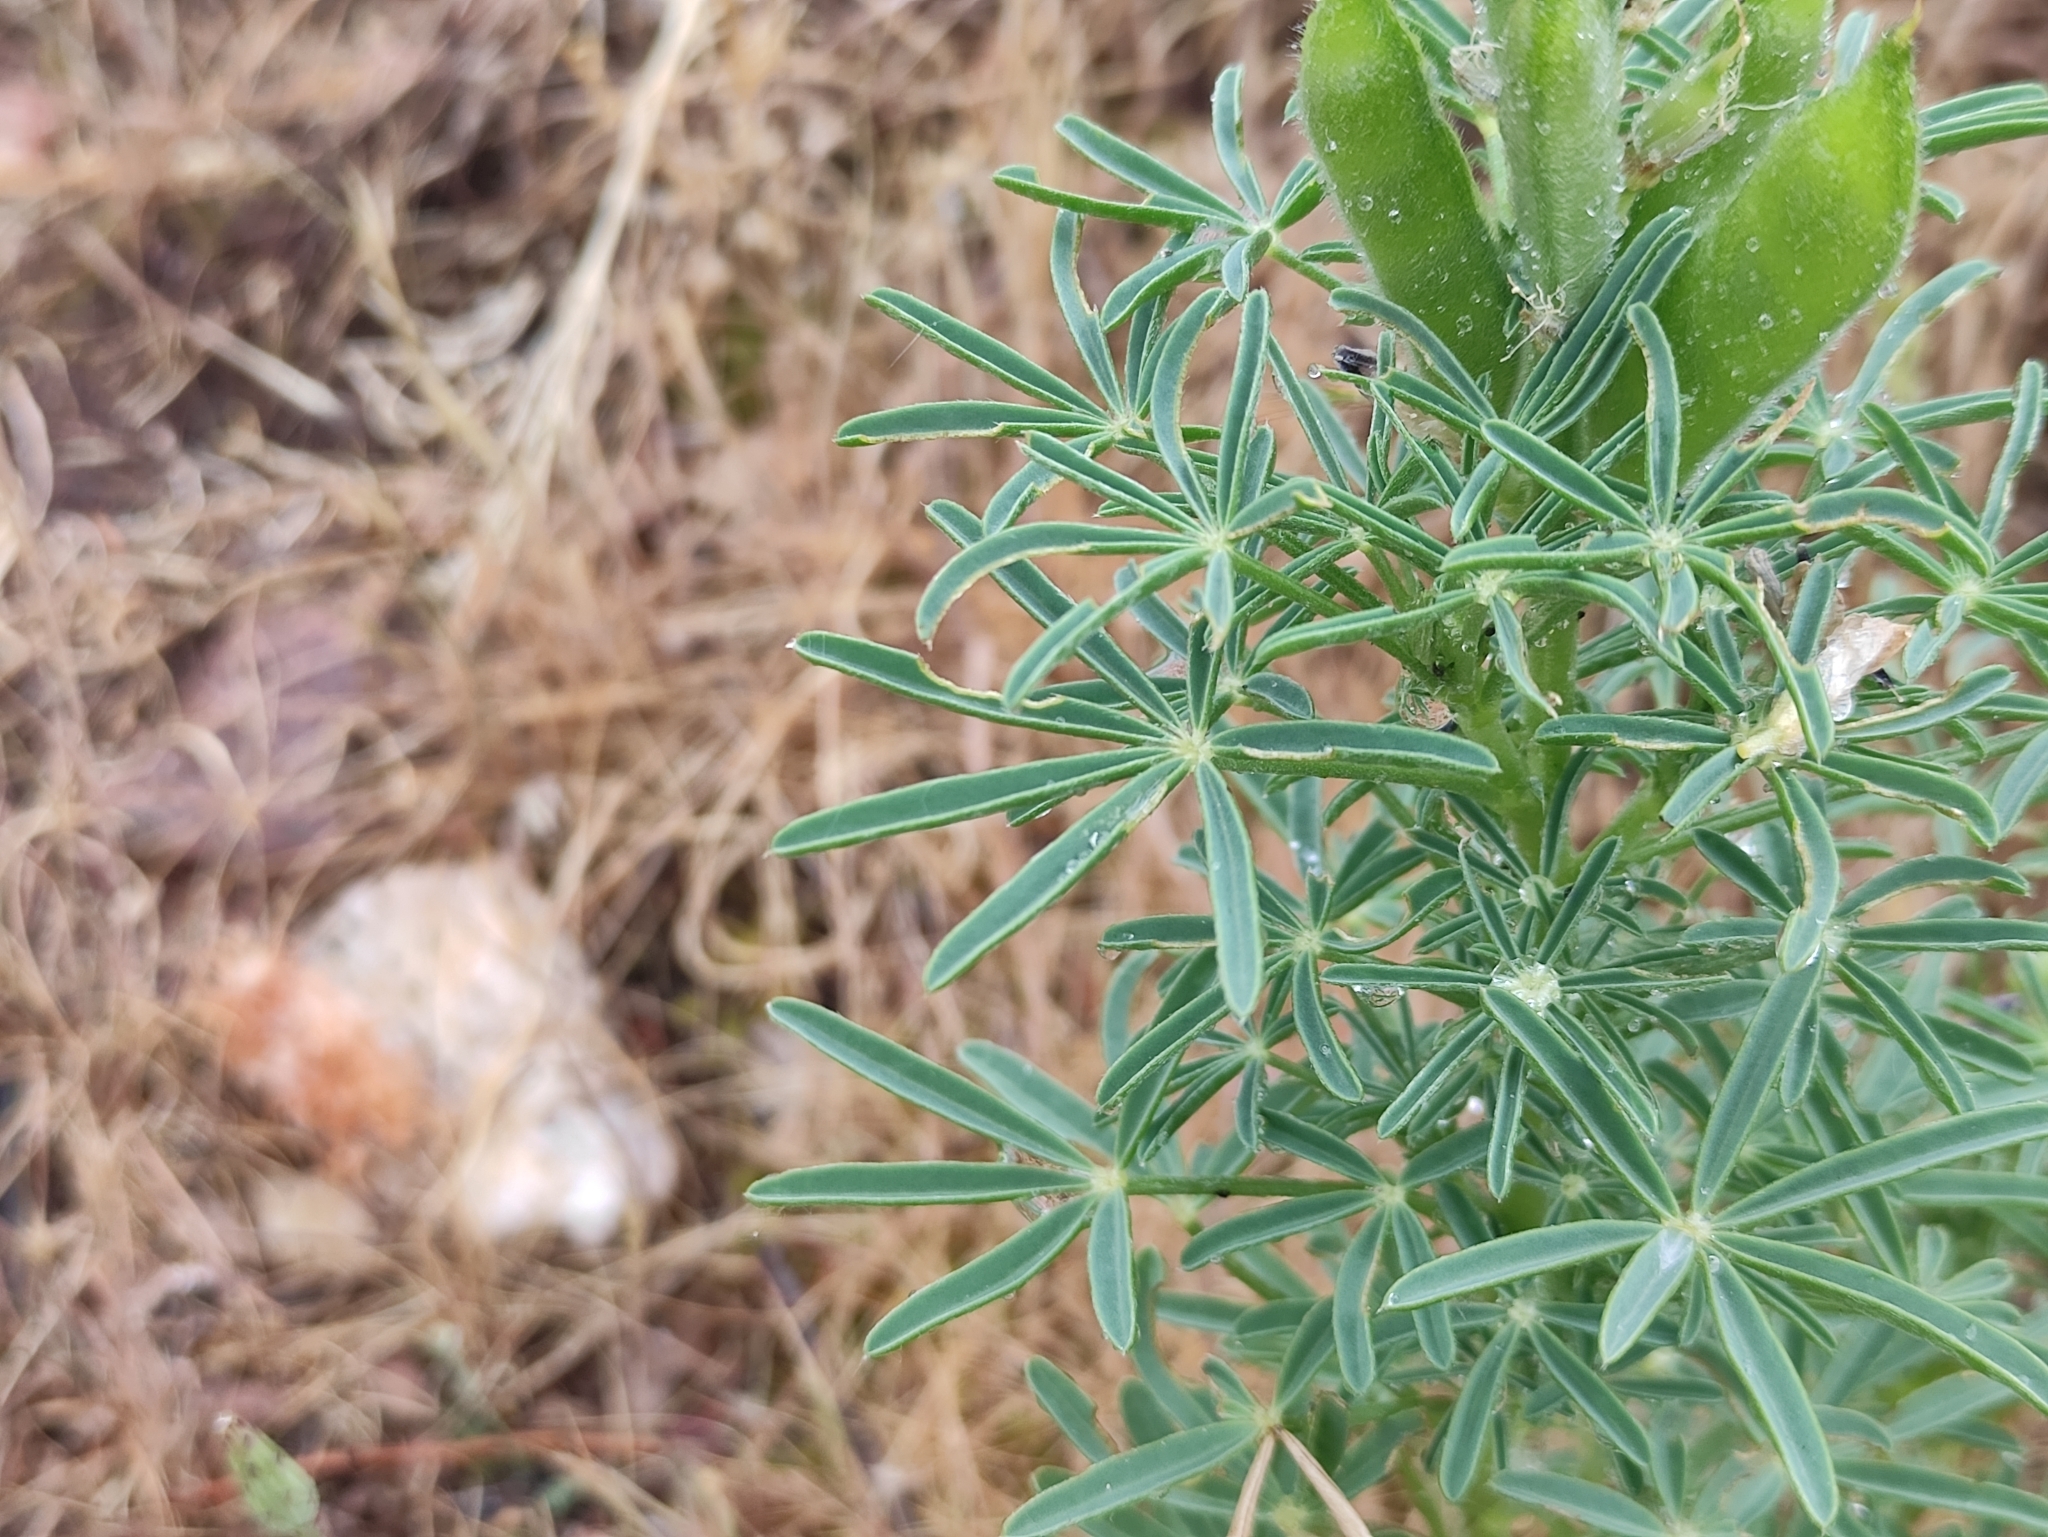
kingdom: Plantae
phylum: Tracheophyta
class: Magnoliopsida
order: Fabales
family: Fabaceae
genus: Lupinus
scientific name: Lupinus angustifolius
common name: Narrow-leaved lupin
